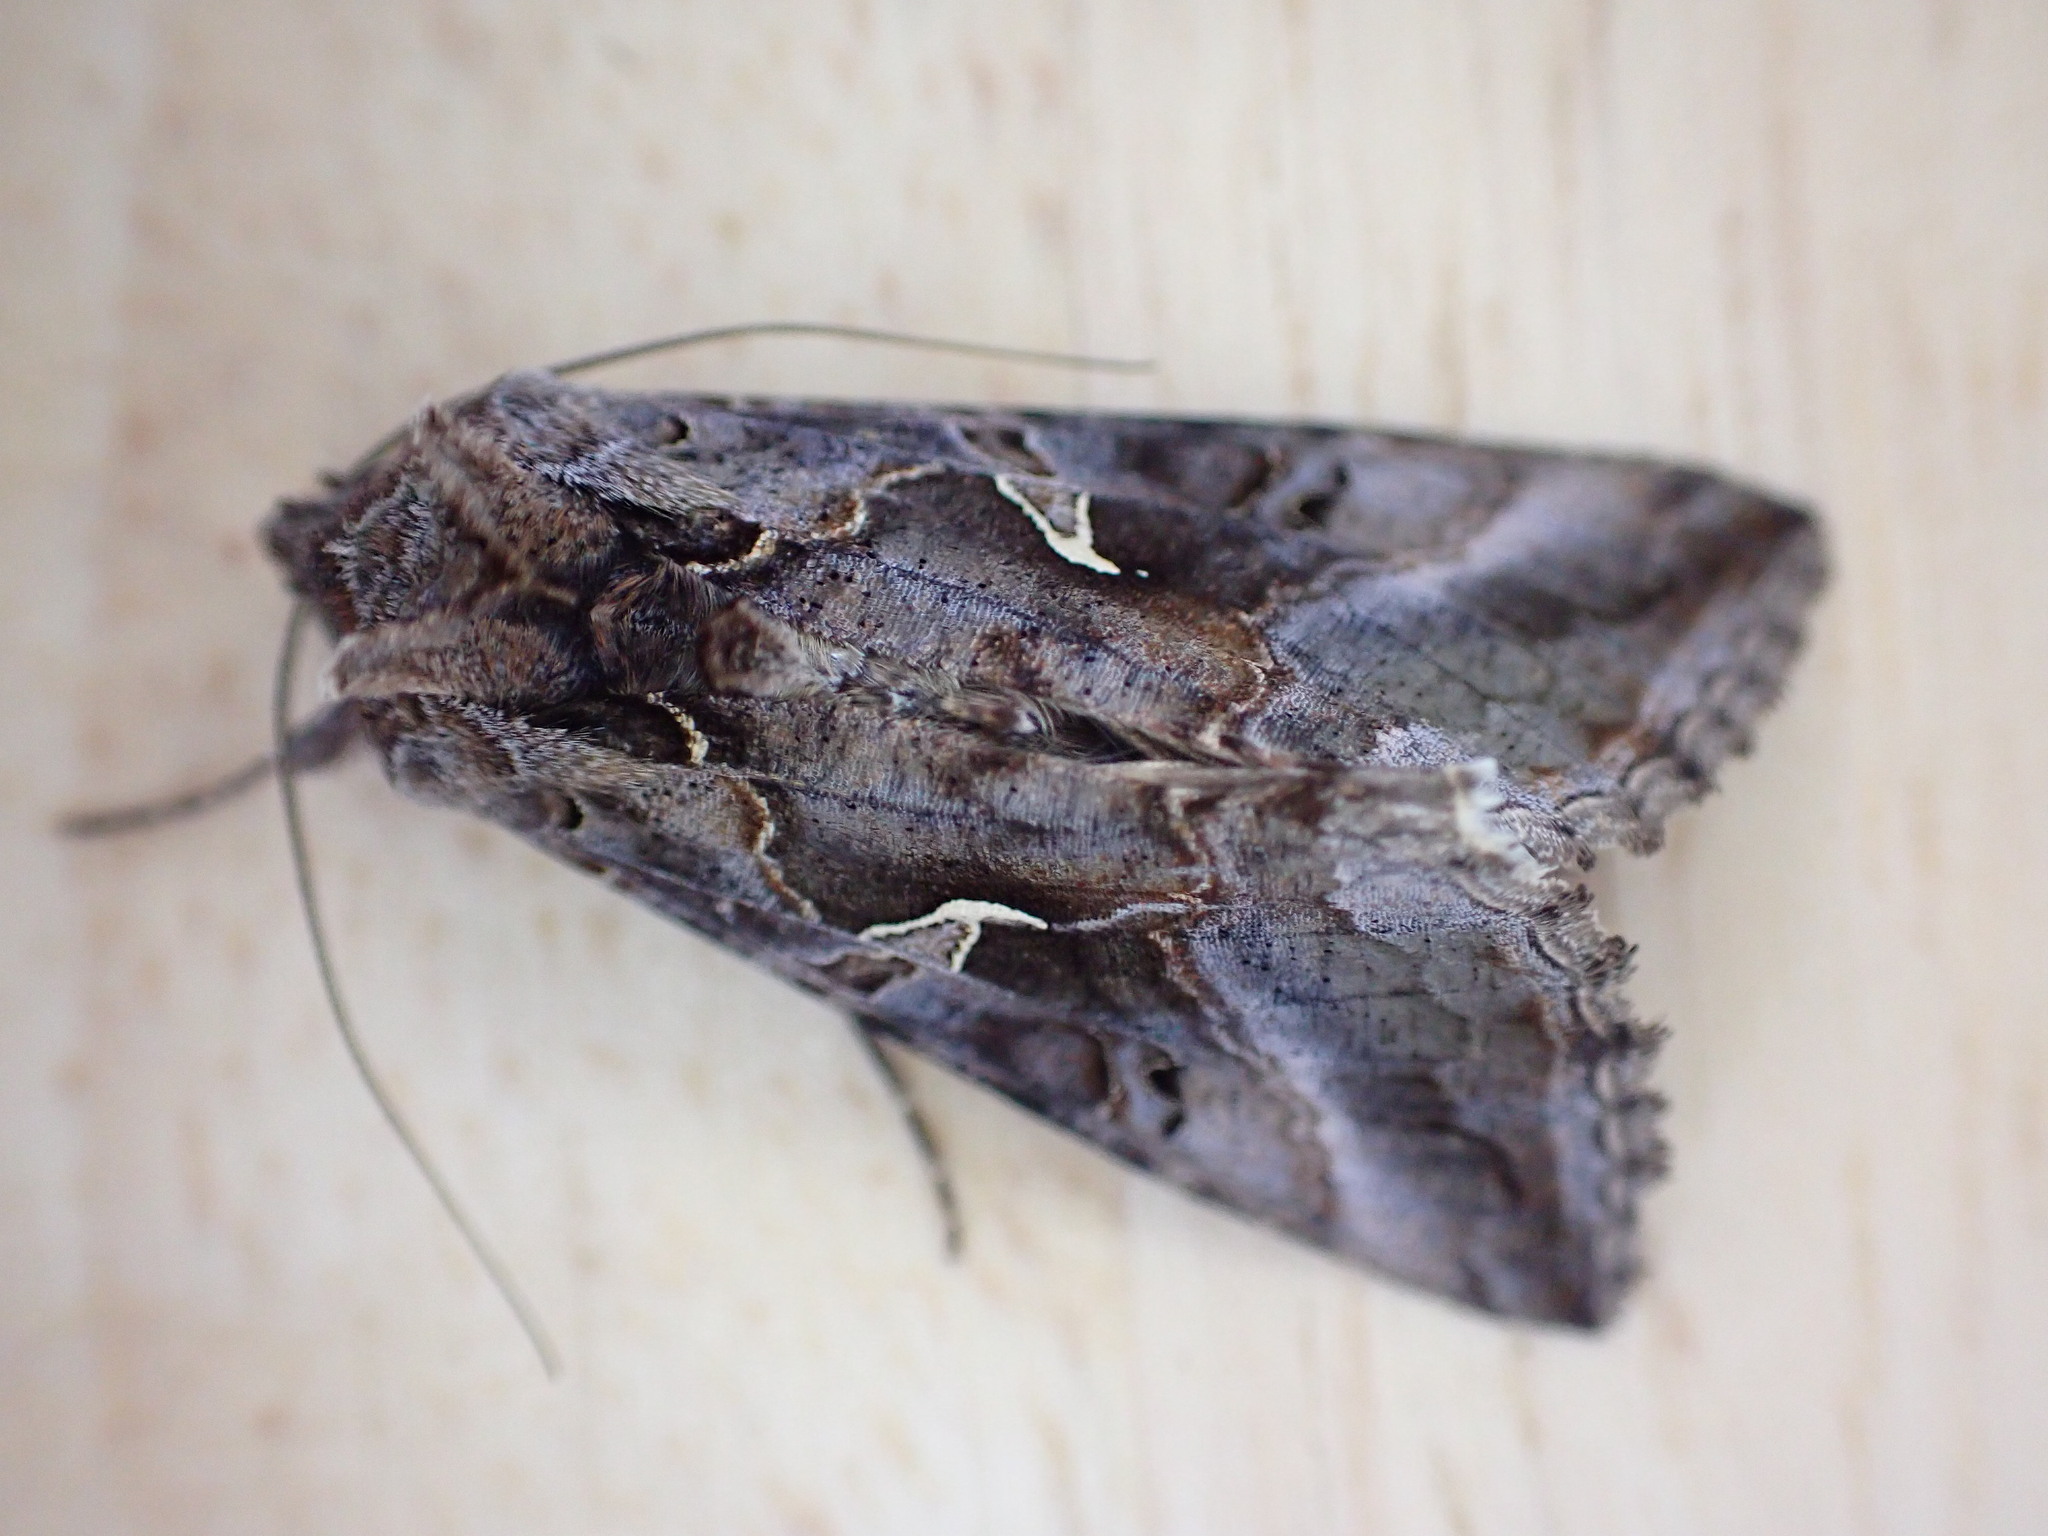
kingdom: Animalia
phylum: Arthropoda
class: Insecta
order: Lepidoptera
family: Noctuidae
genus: Autographa
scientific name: Autographa gamma
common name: Silver y
